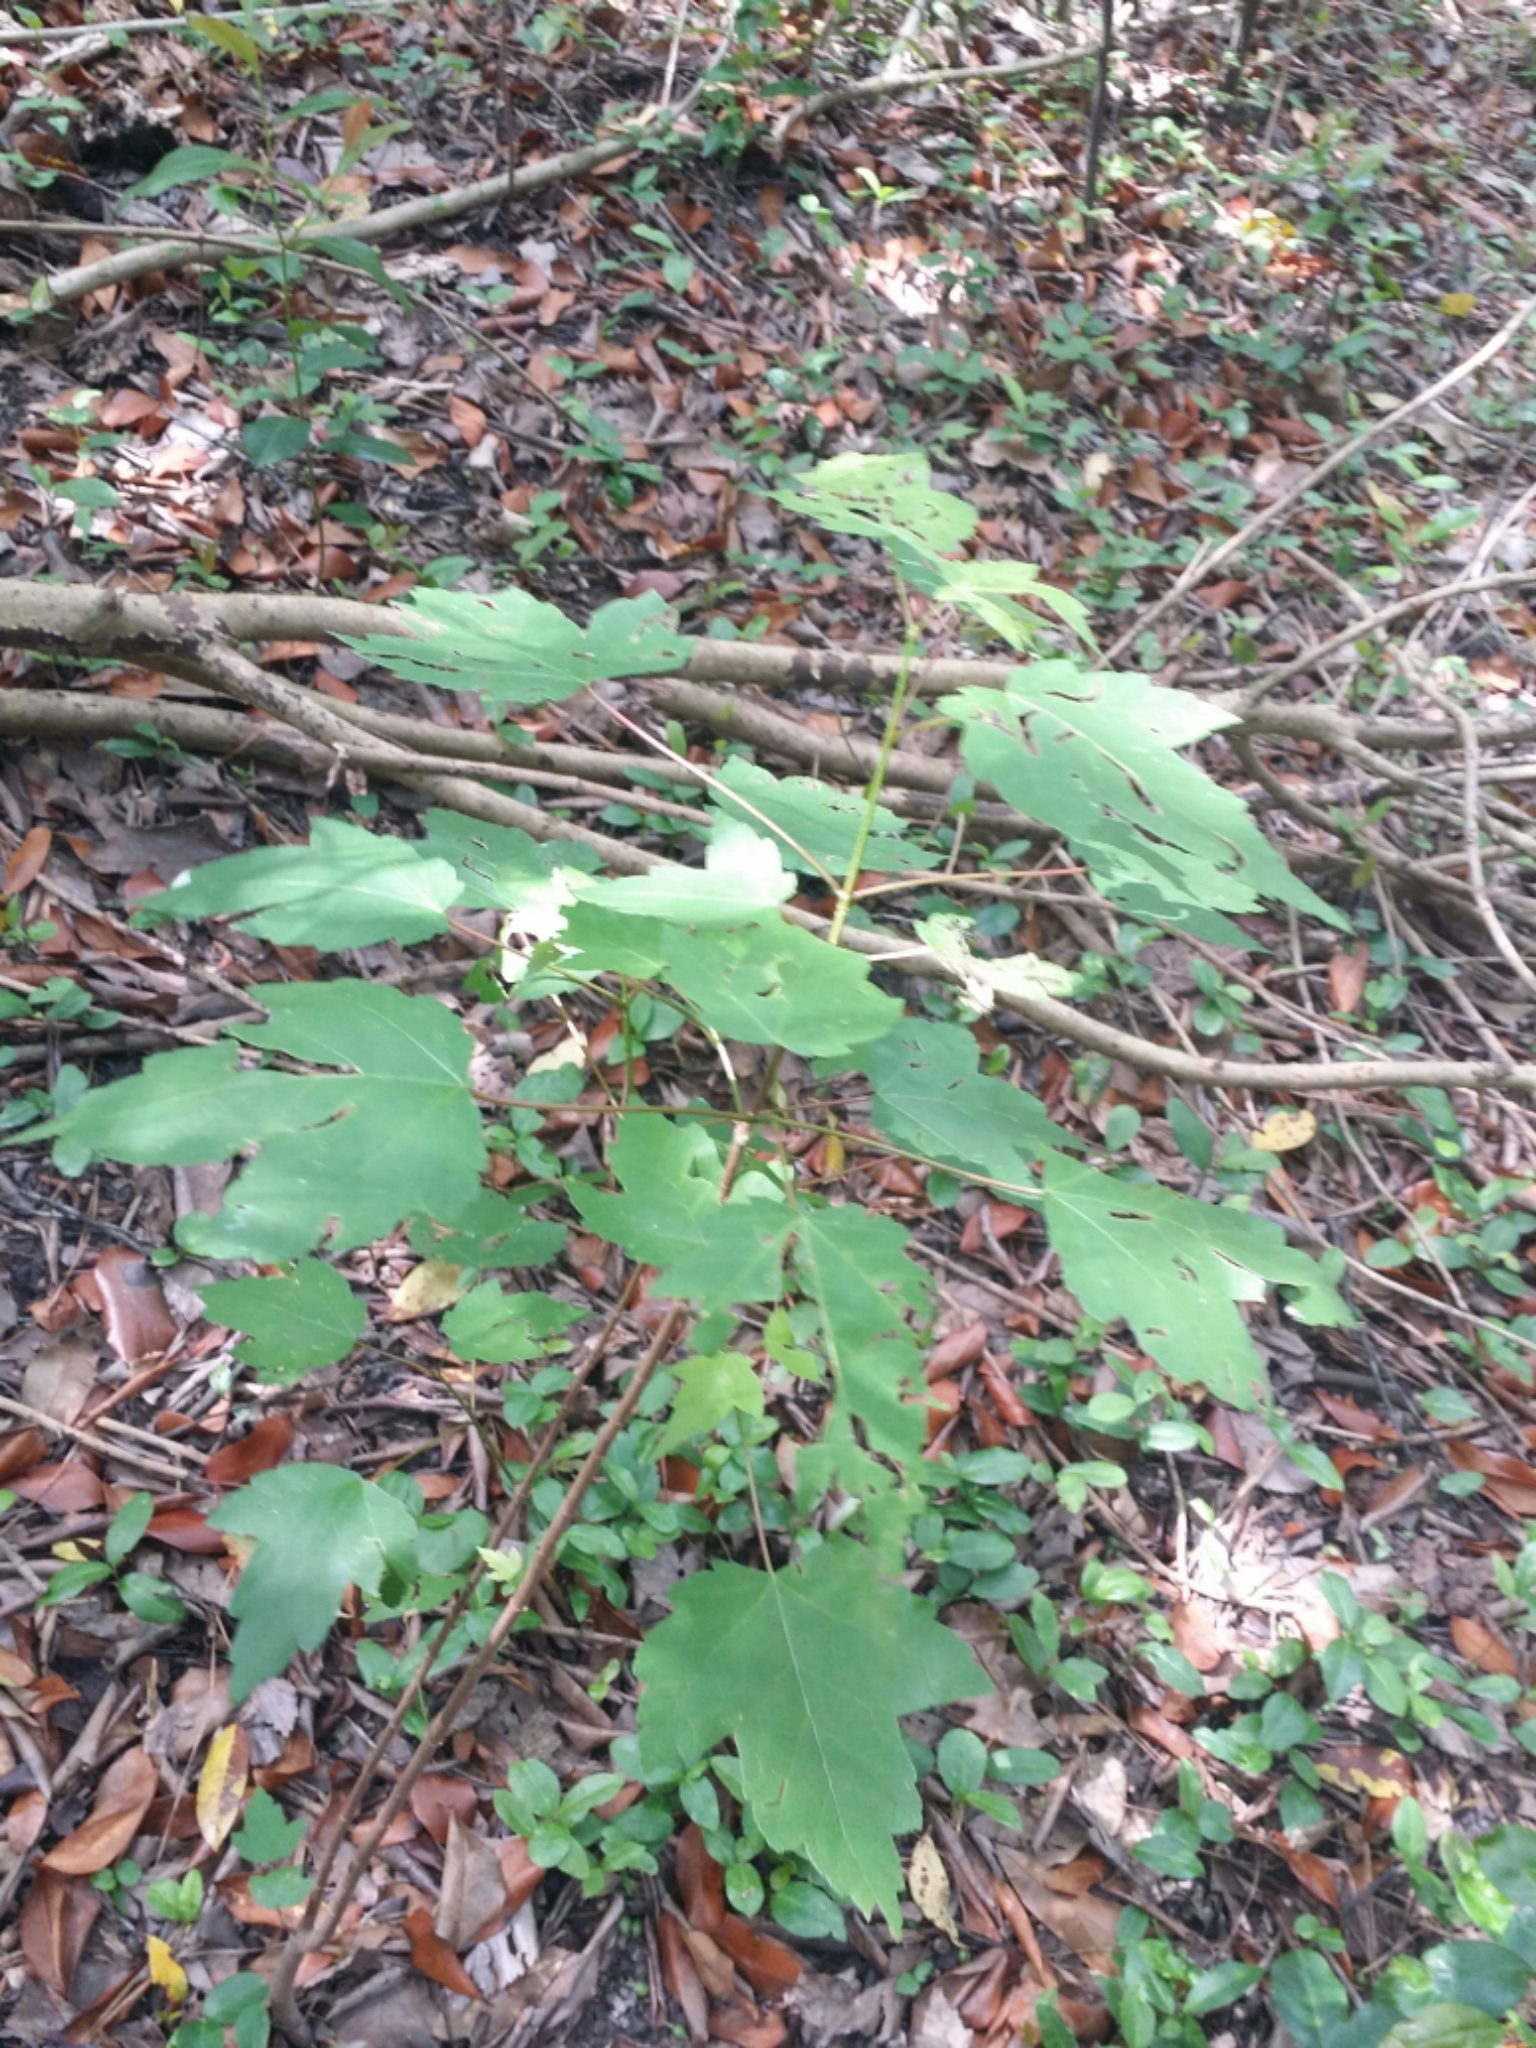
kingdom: Plantae
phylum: Tracheophyta
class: Magnoliopsida
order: Sapindales
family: Sapindaceae
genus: Acer
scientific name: Acer rubrum
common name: Red maple
